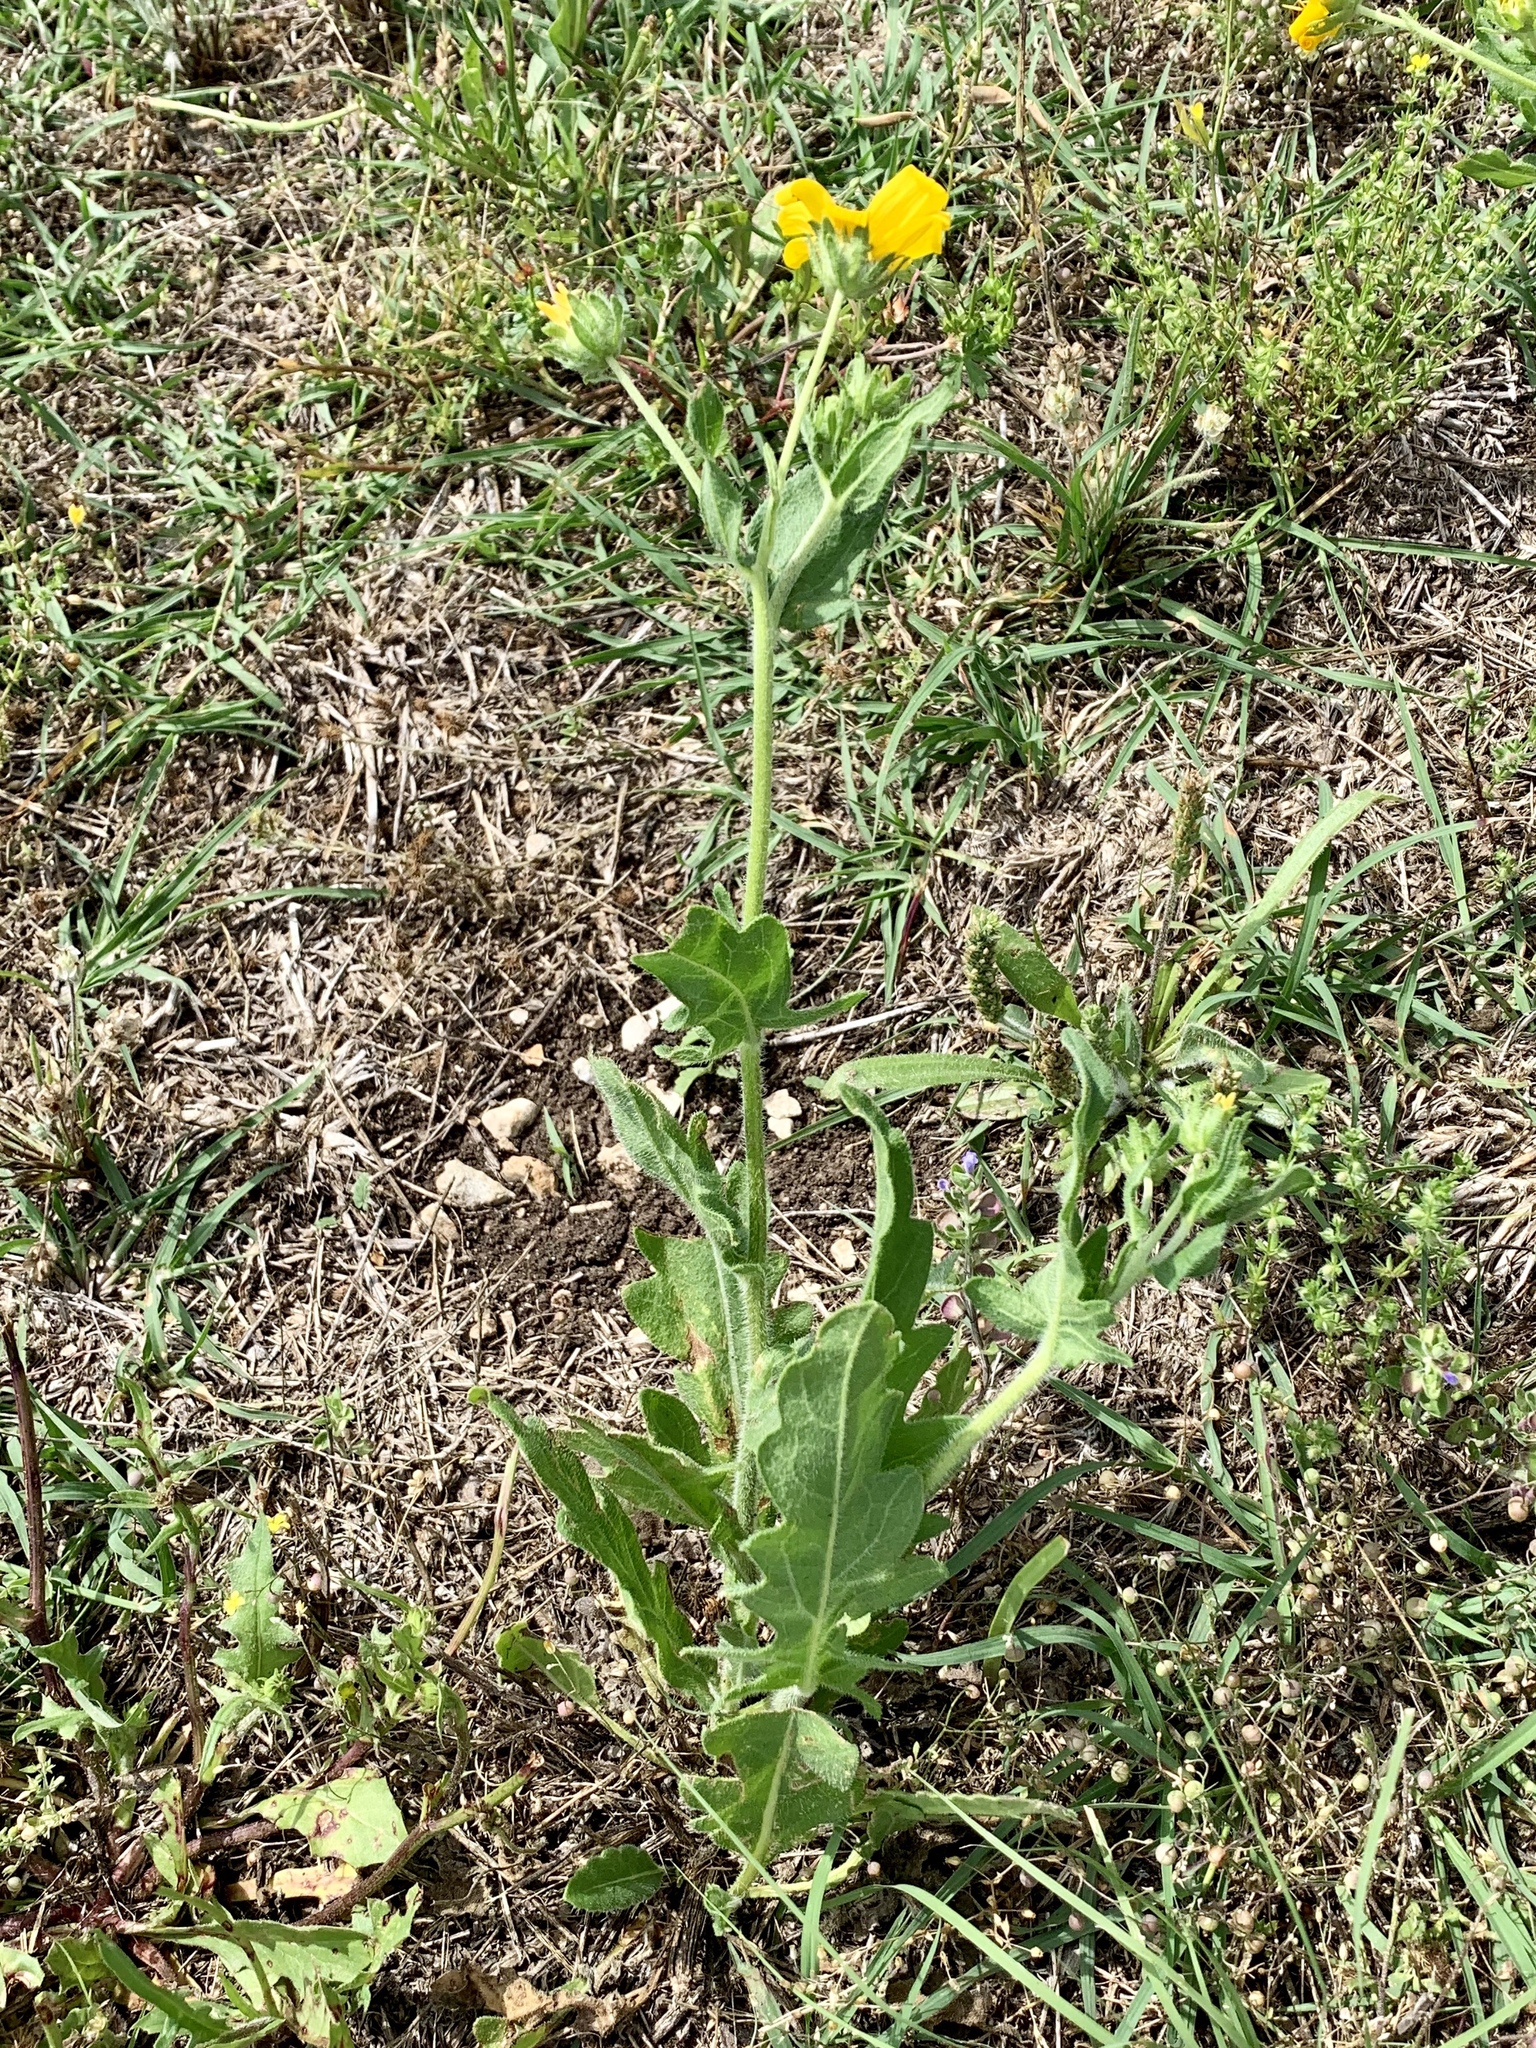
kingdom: Plantae
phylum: Tracheophyta
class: Magnoliopsida
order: Asterales
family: Asteraceae
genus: Engelmannia
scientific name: Engelmannia peristenia
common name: Engelmann's daisy
